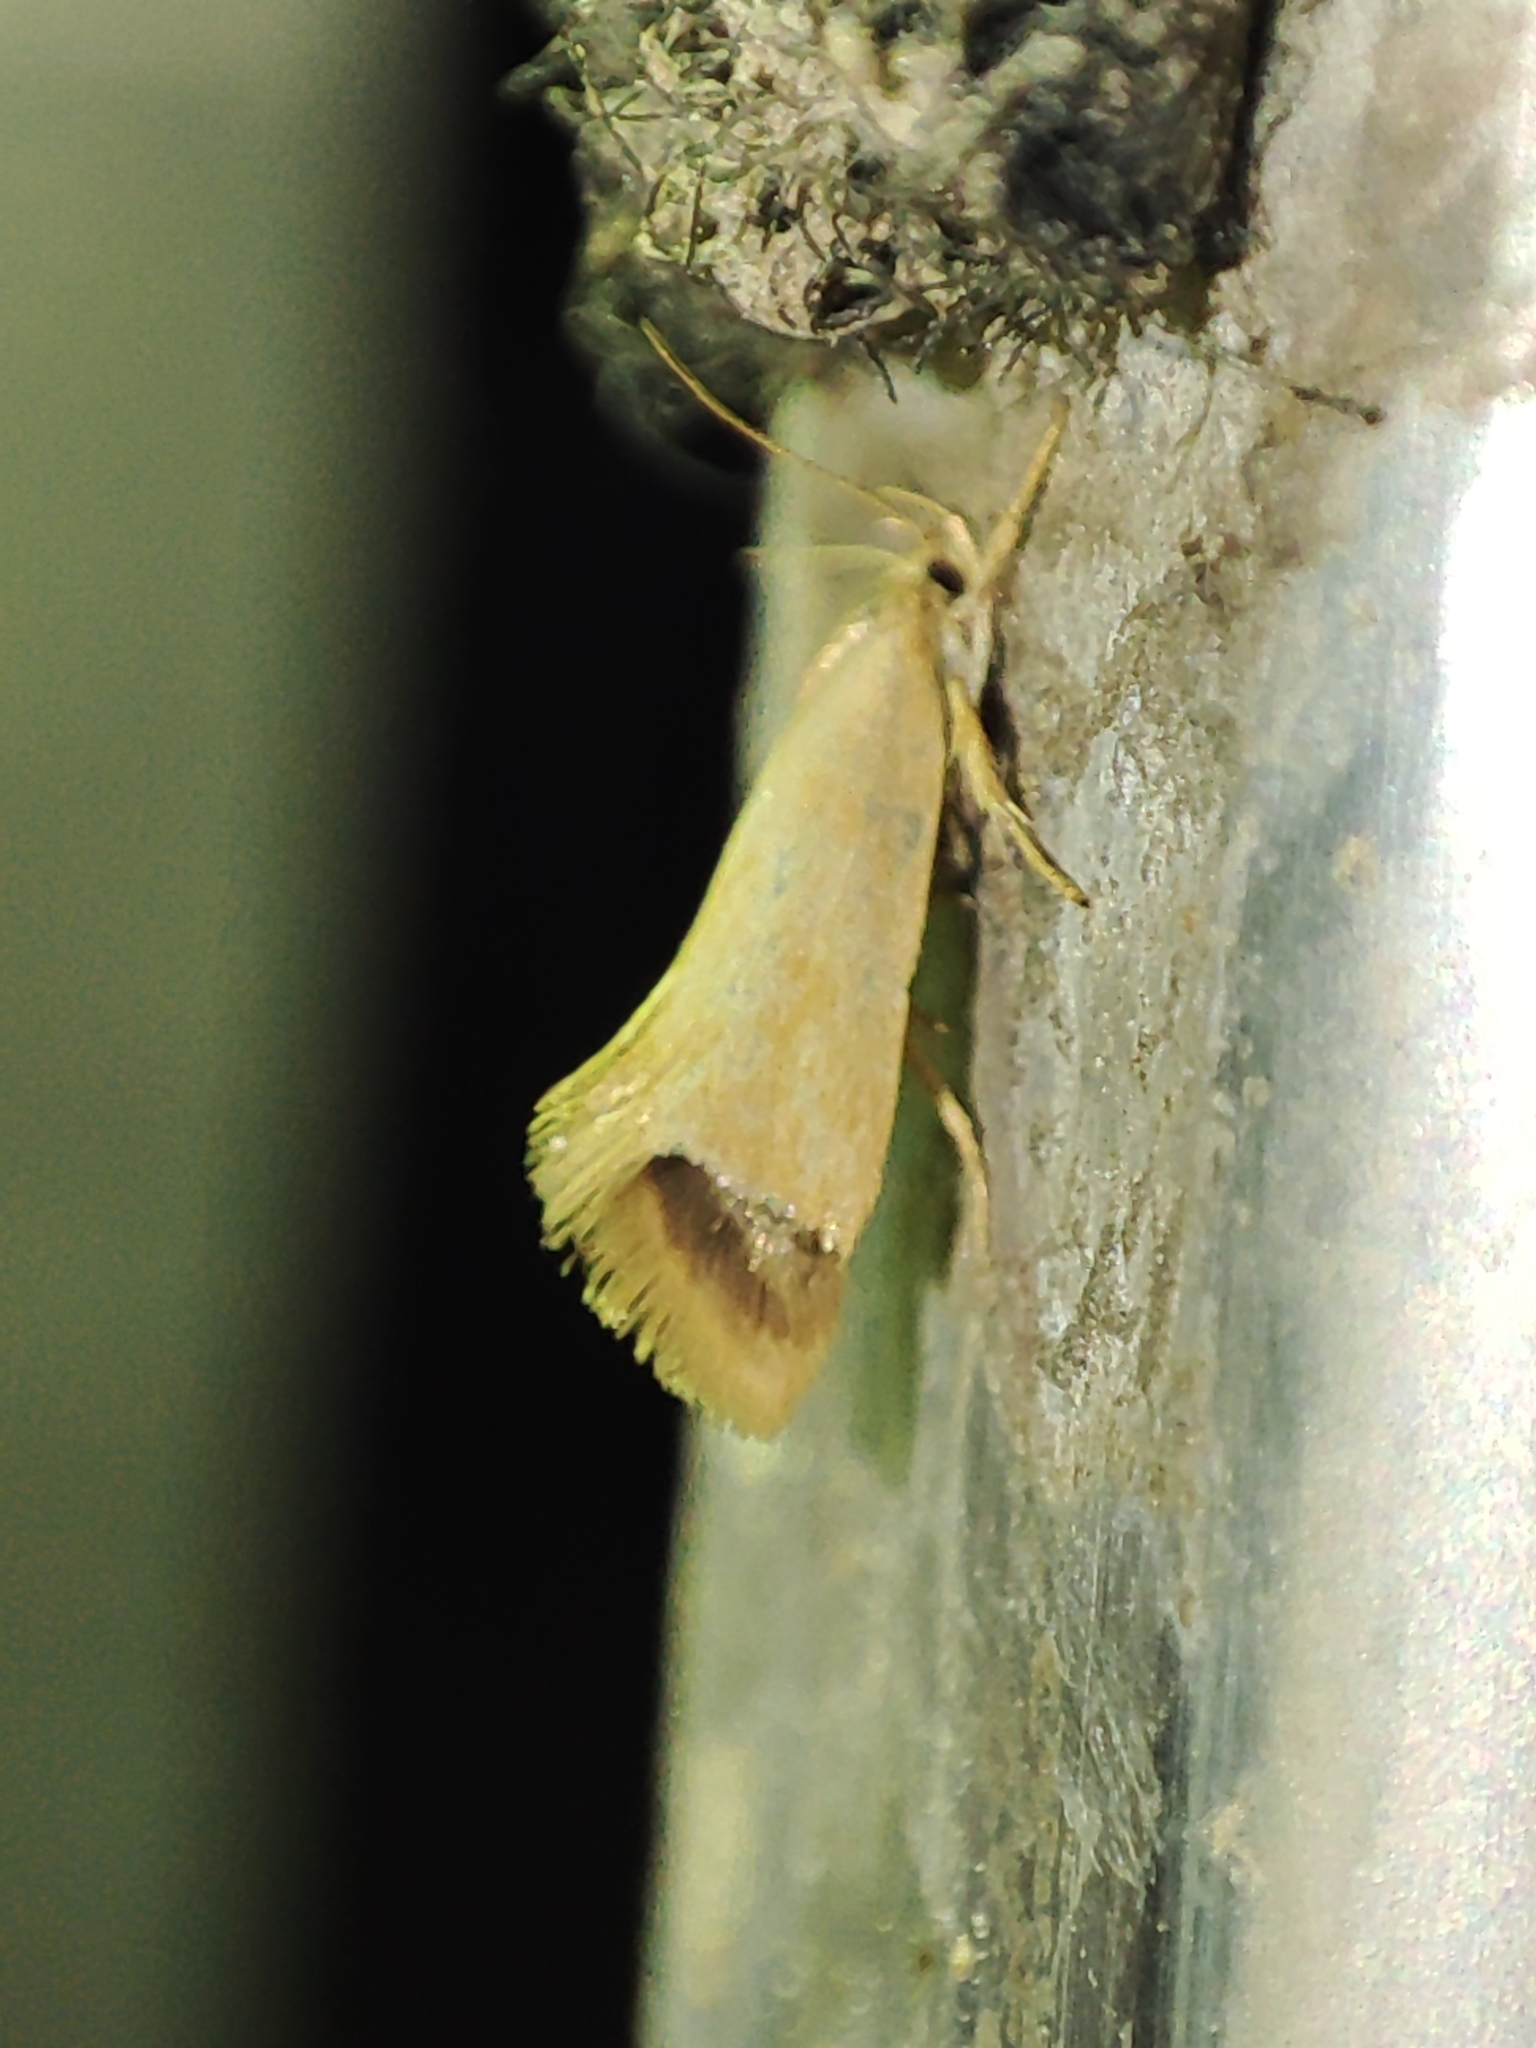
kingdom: Animalia
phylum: Arthropoda
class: Insecta
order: Lepidoptera
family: Oecophoridae
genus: Borkhausenia
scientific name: Borkhausenia Crassa tinctella
